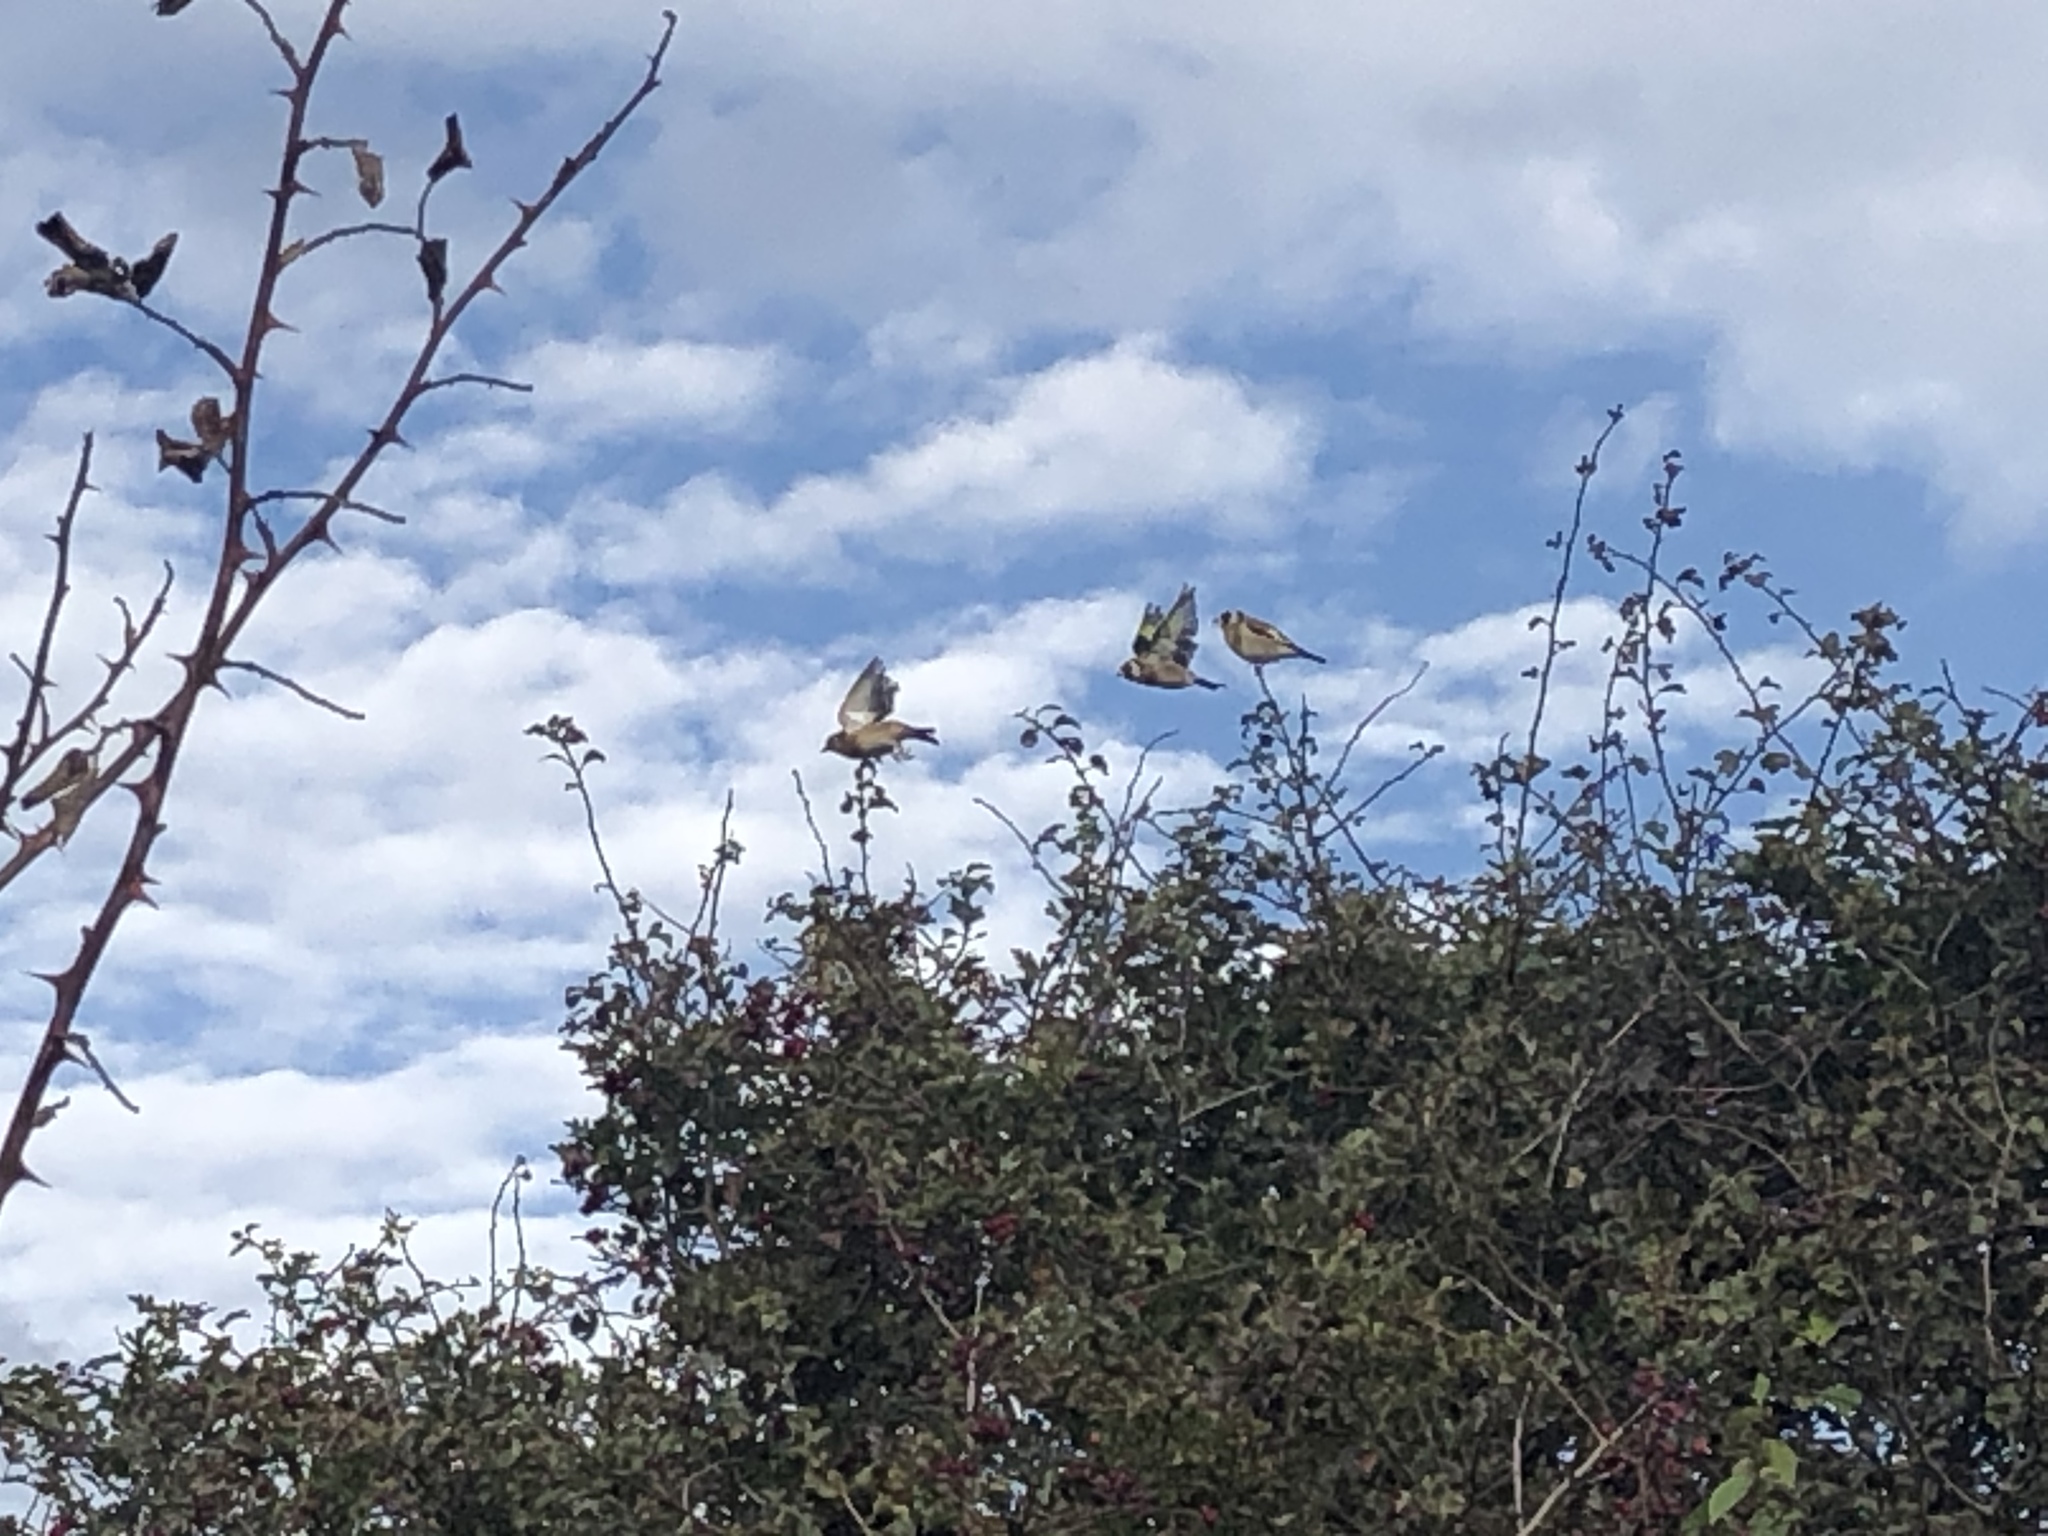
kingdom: Animalia
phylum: Chordata
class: Aves
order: Passeriformes
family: Fringillidae
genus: Carduelis
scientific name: Carduelis carduelis
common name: European goldfinch
